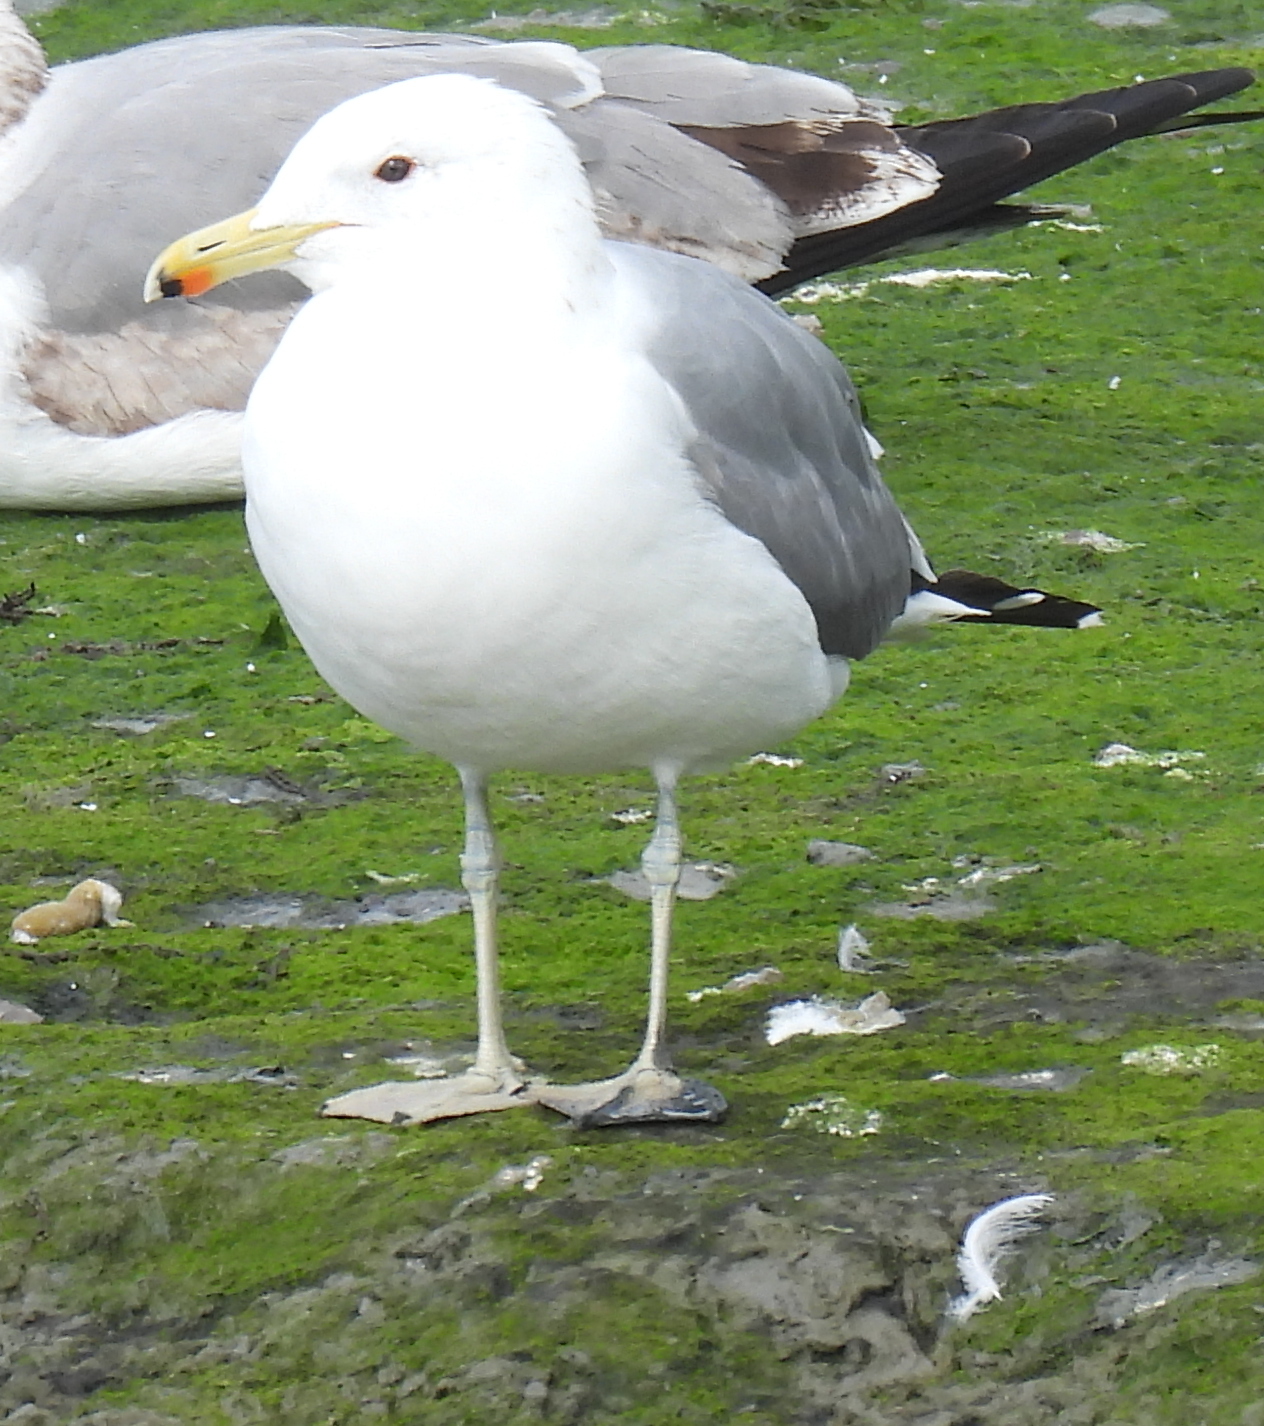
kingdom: Animalia
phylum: Chordata
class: Aves
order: Charadriiformes
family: Laridae
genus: Larus
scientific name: Larus californicus
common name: California gull
